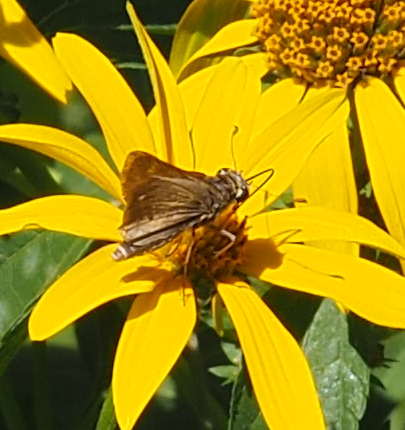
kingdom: Animalia
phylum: Arthropoda
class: Insecta
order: Lepidoptera
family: Hesperiidae
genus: Atalopedes
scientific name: Atalopedes
